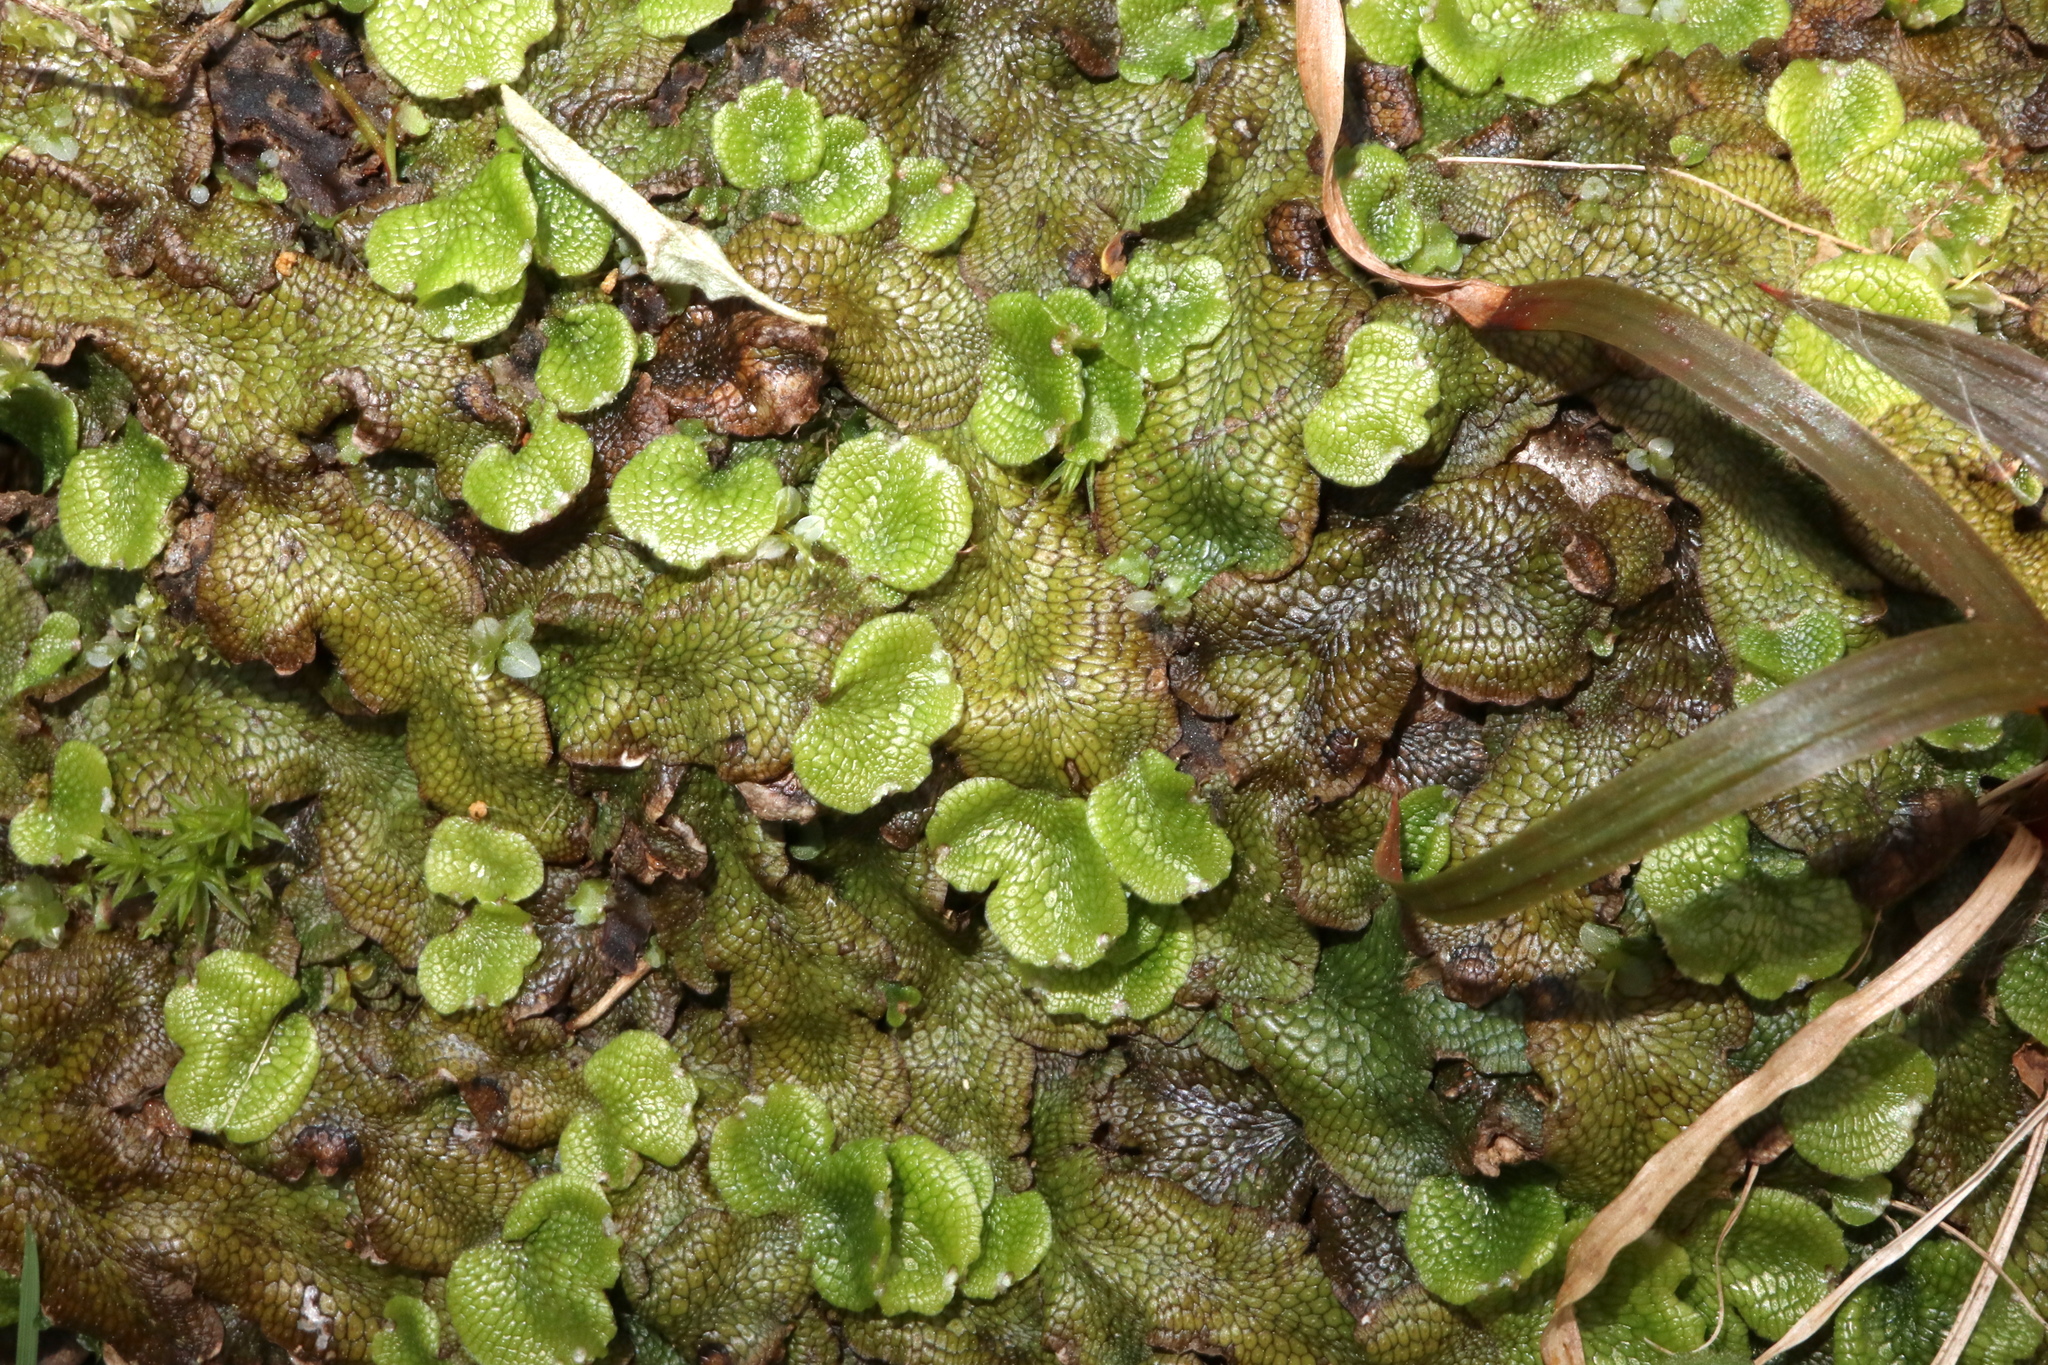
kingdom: Plantae
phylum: Marchantiophyta
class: Marchantiopsida
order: Marchantiales
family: Conocephalaceae
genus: Conocephalum
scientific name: Conocephalum salebrosum
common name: Cat-tongue liverwort
